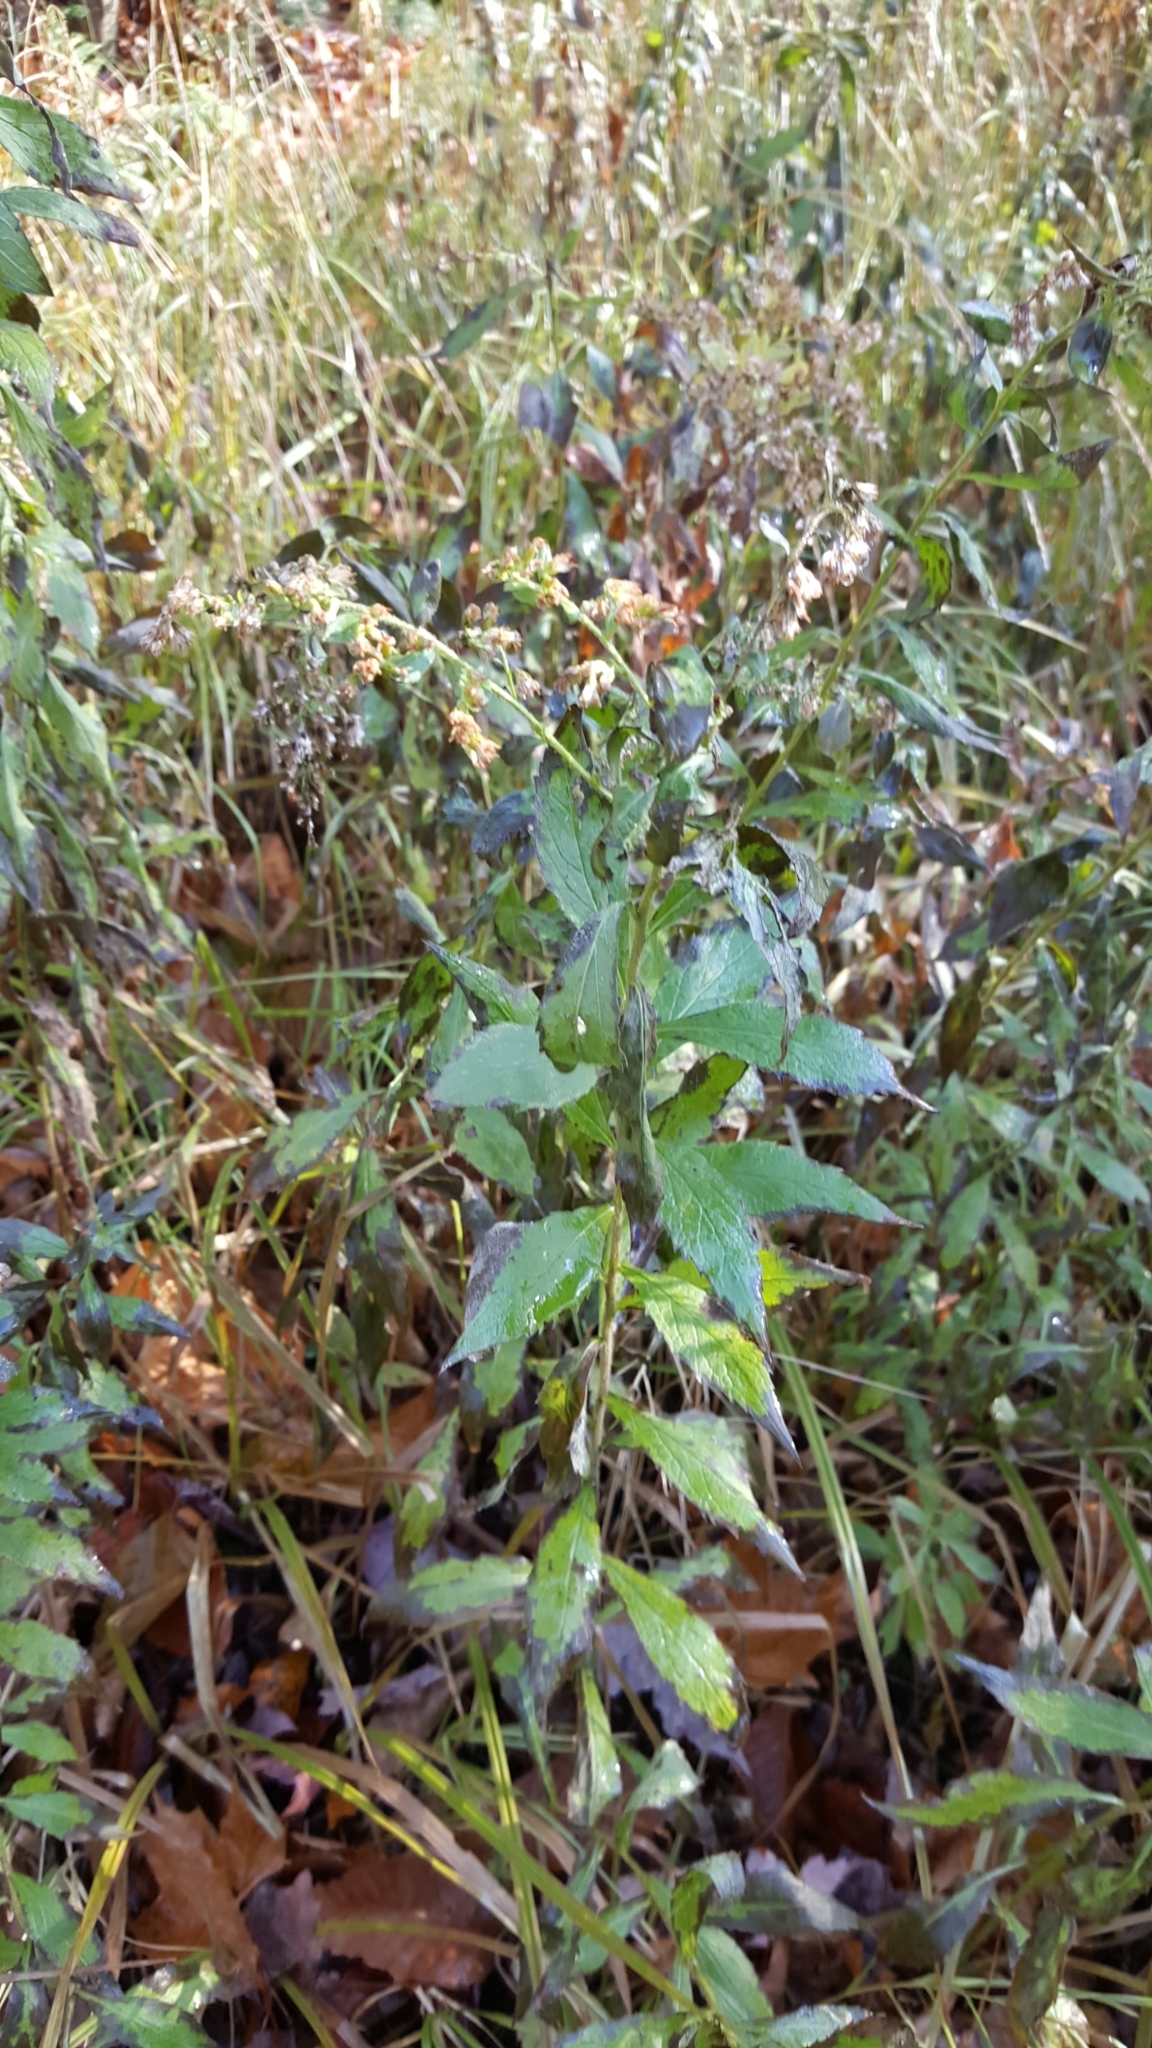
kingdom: Plantae
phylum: Tracheophyta
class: Magnoliopsida
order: Asterales
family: Asteraceae
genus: Solidago
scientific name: Solidago rugosa
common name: Rough-stemmed goldenrod
